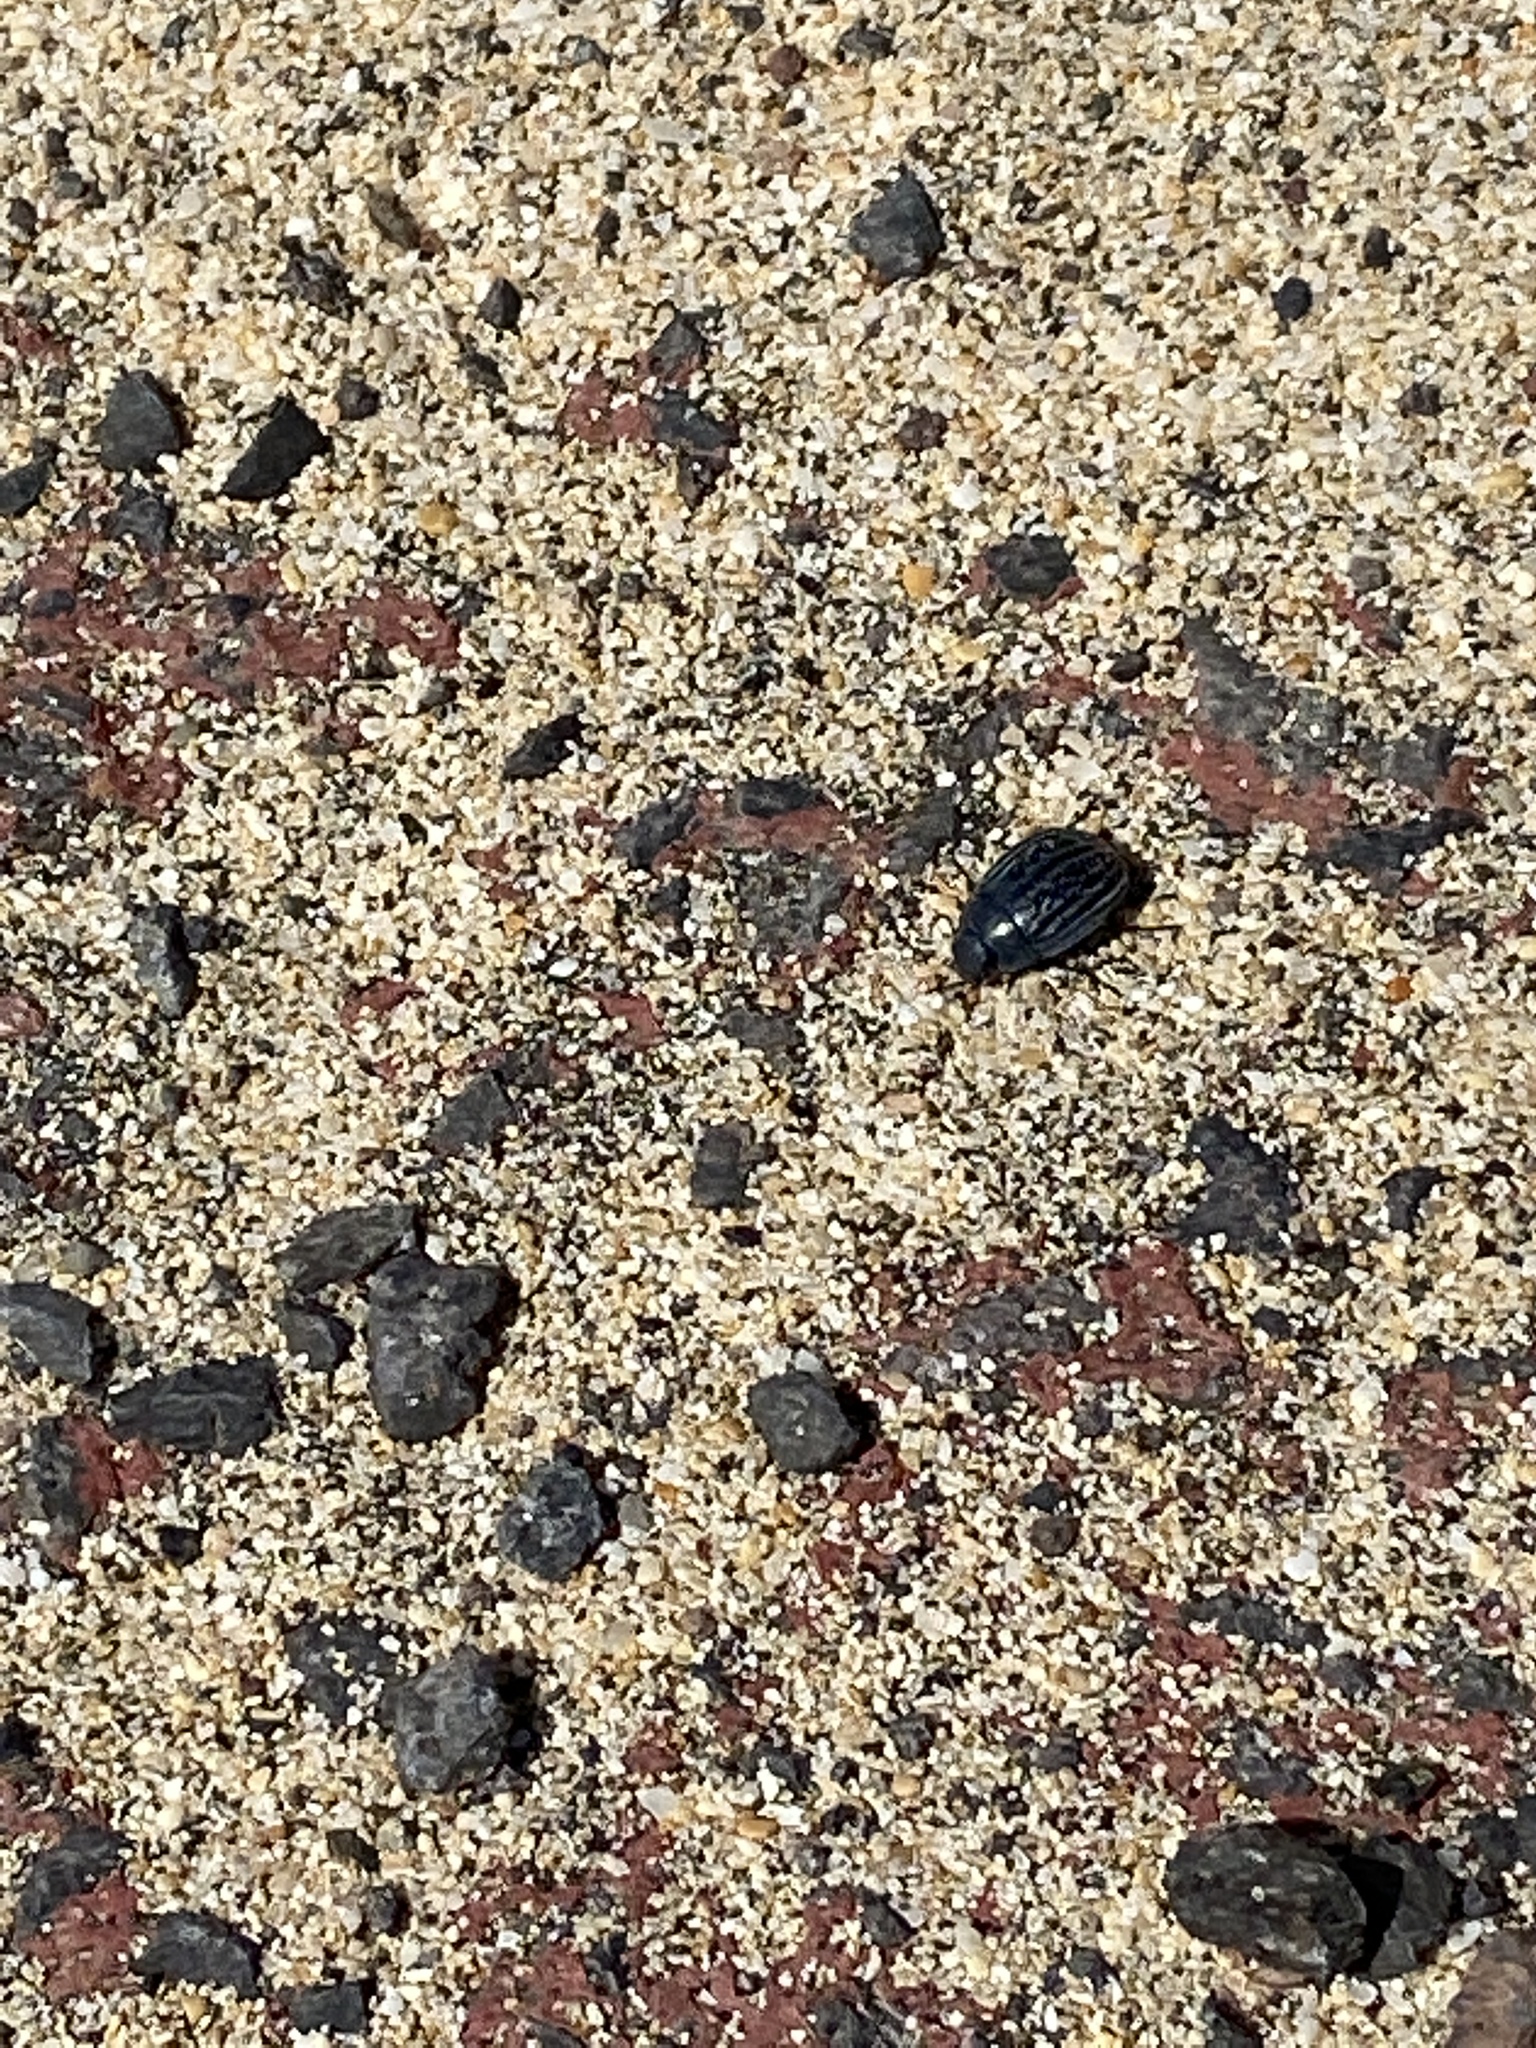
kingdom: Animalia
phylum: Arthropoda
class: Insecta
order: Coleoptera
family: Tenebrionidae
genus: Zophosis
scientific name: Zophosis bicarinata
